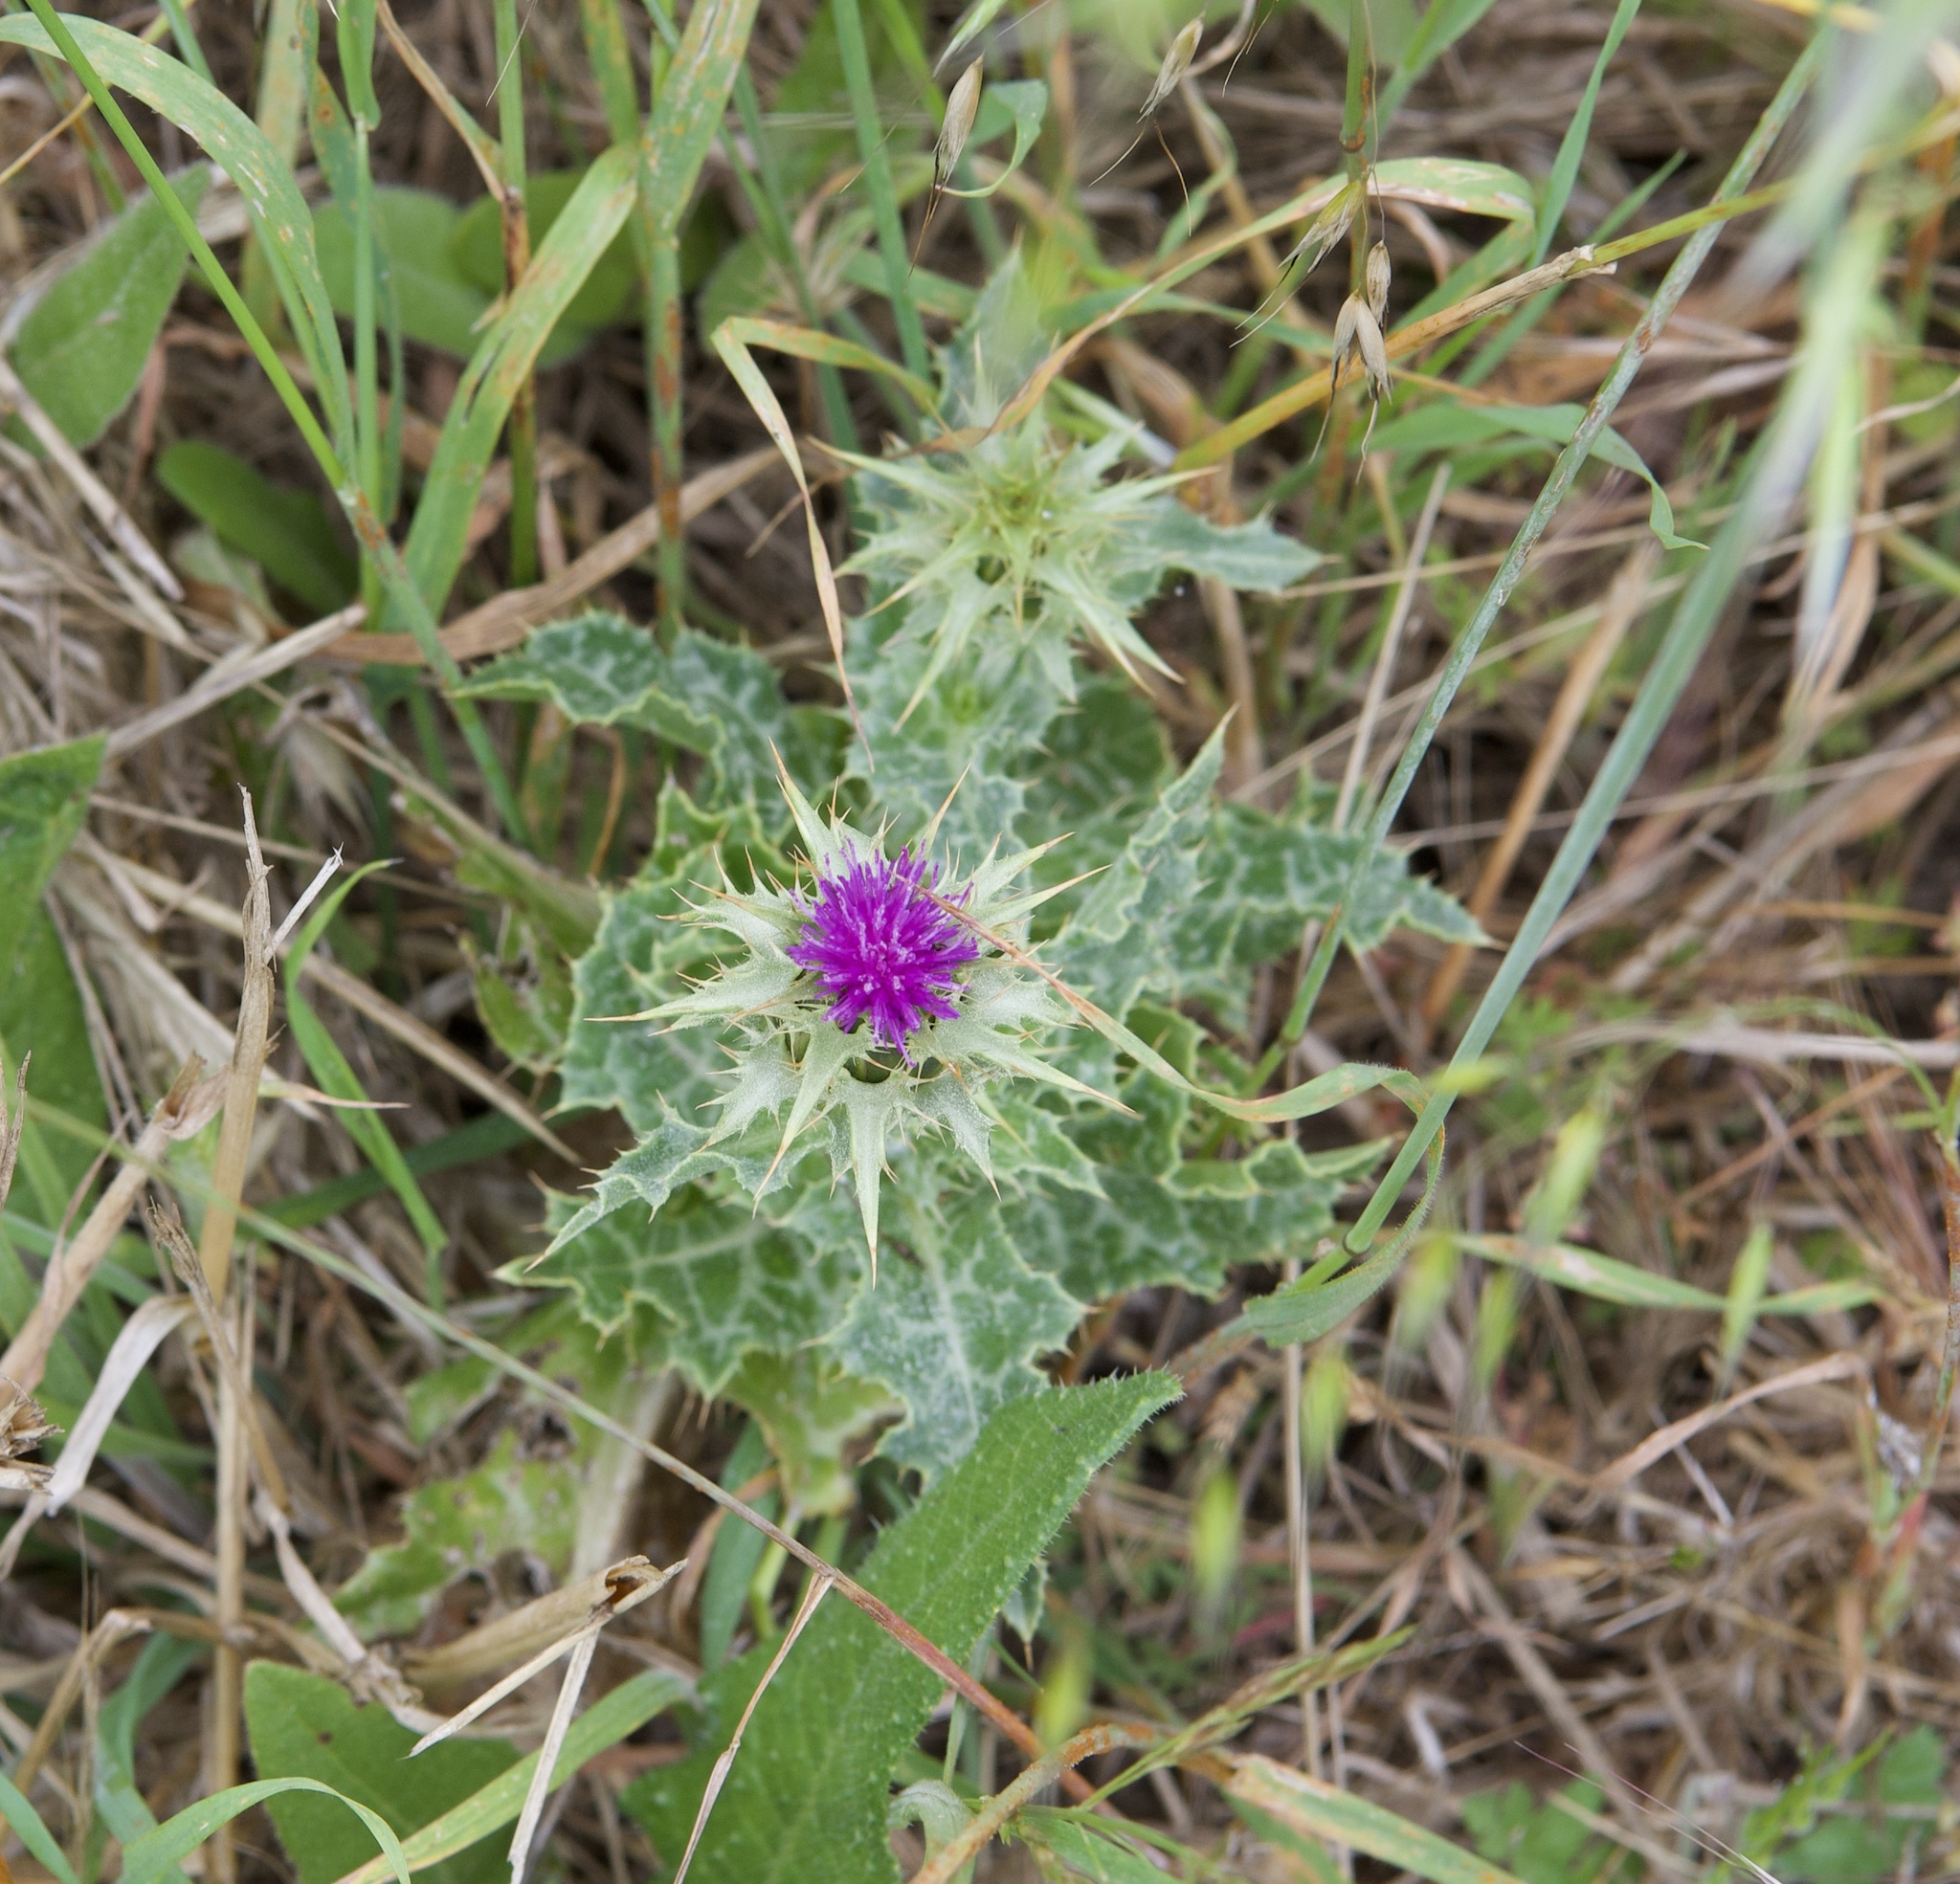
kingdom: Plantae
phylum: Tracheophyta
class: Magnoliopsida
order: Asterales
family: Asteraceae
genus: Silybum
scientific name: Silybum marianum
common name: Milk thistle
